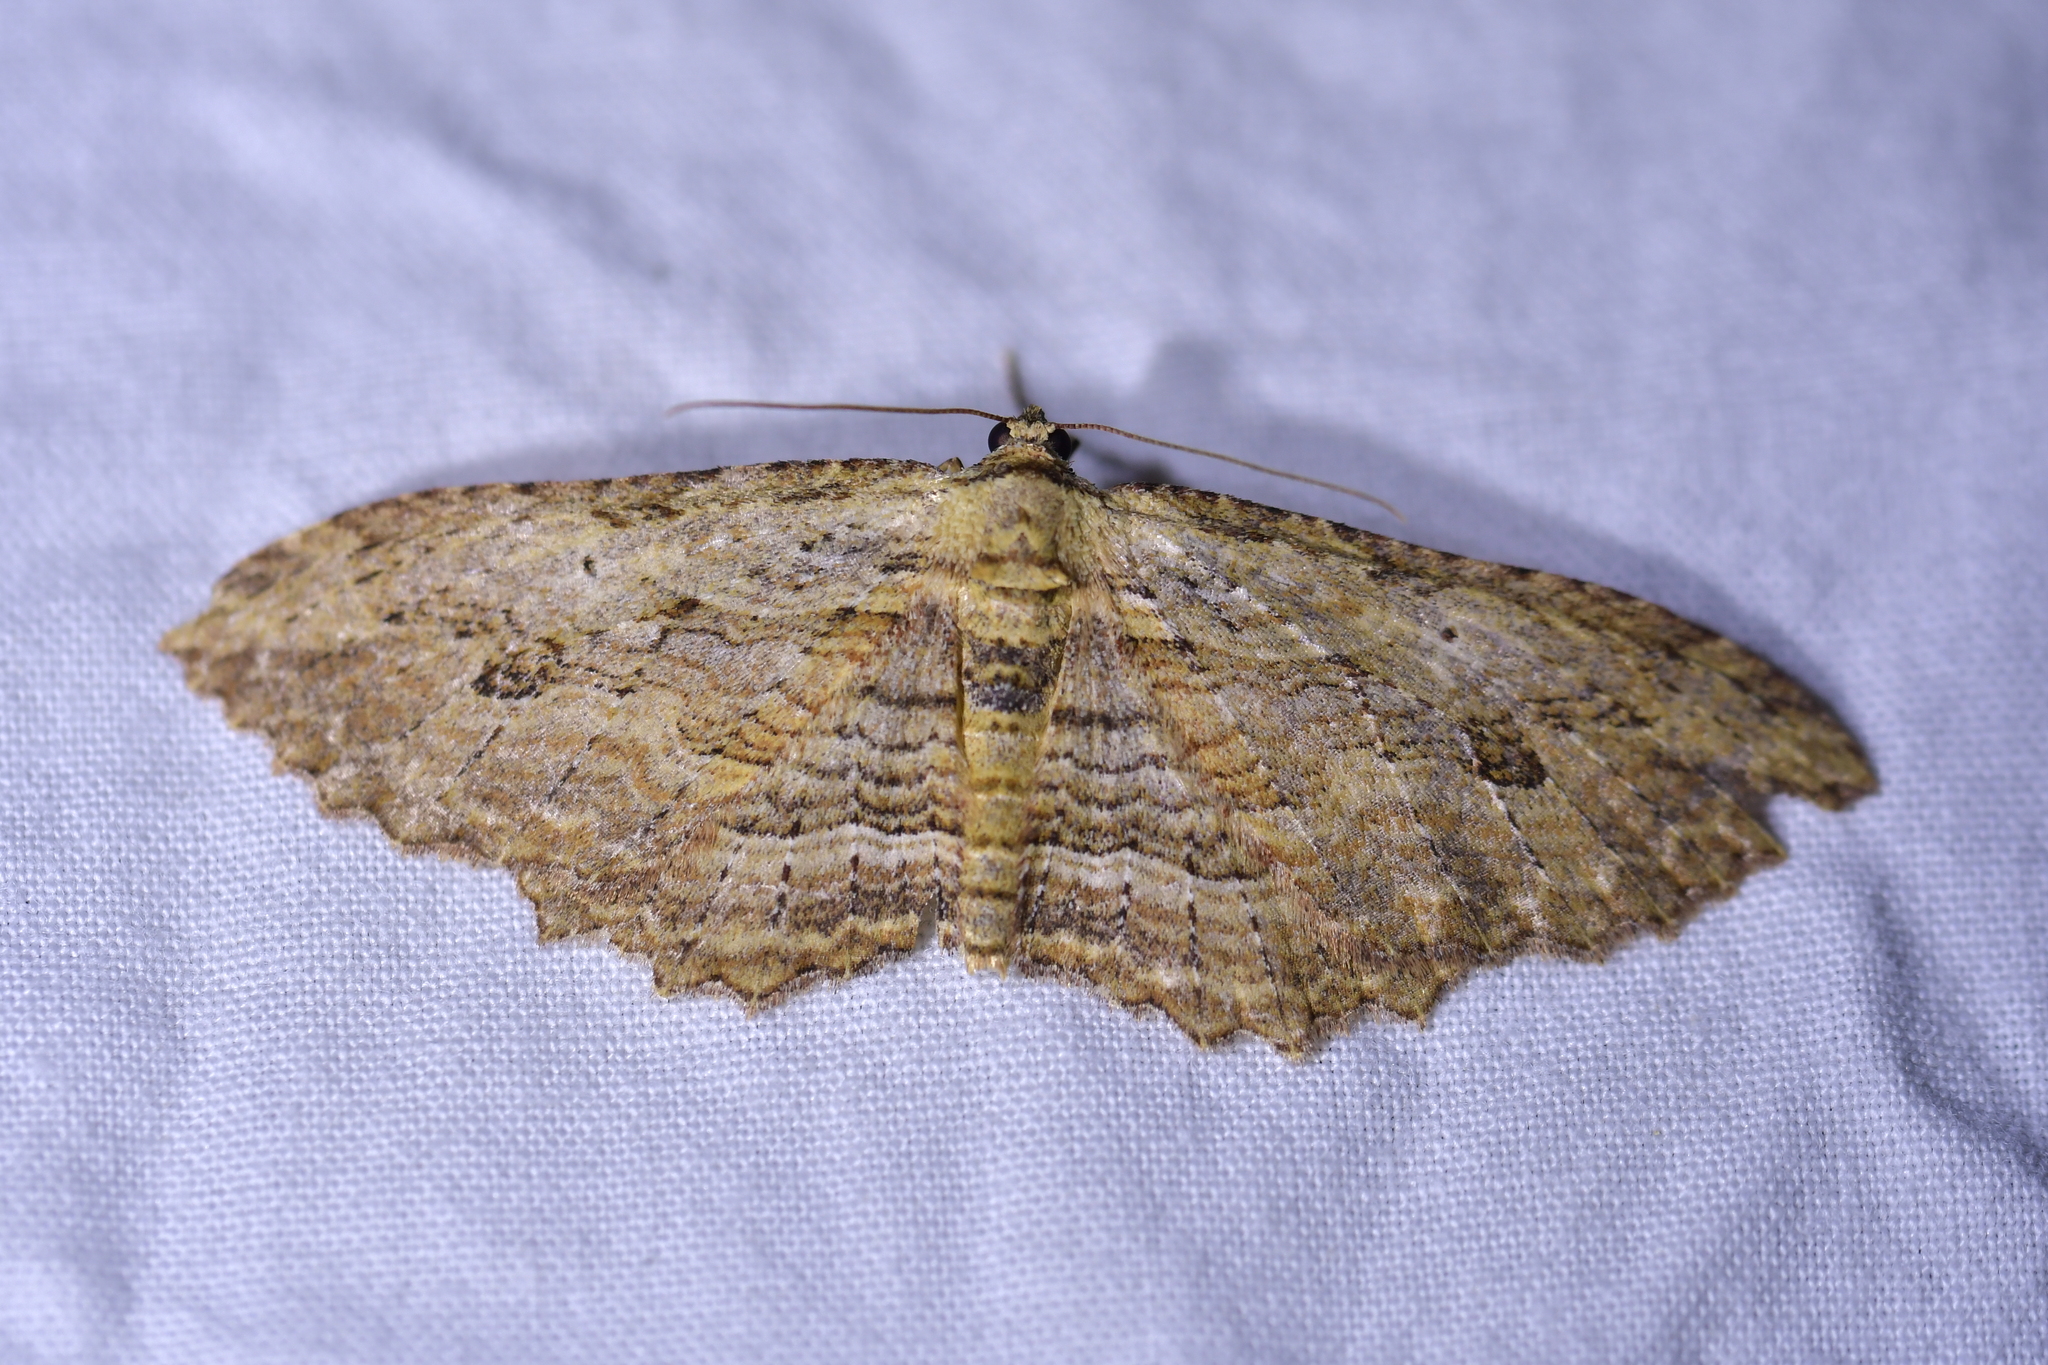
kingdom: Animalia
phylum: Arthropoda
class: Insecta
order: Lepidoptera
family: Geometridae
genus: Austrocidaria
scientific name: Austrocidaria bipartita
